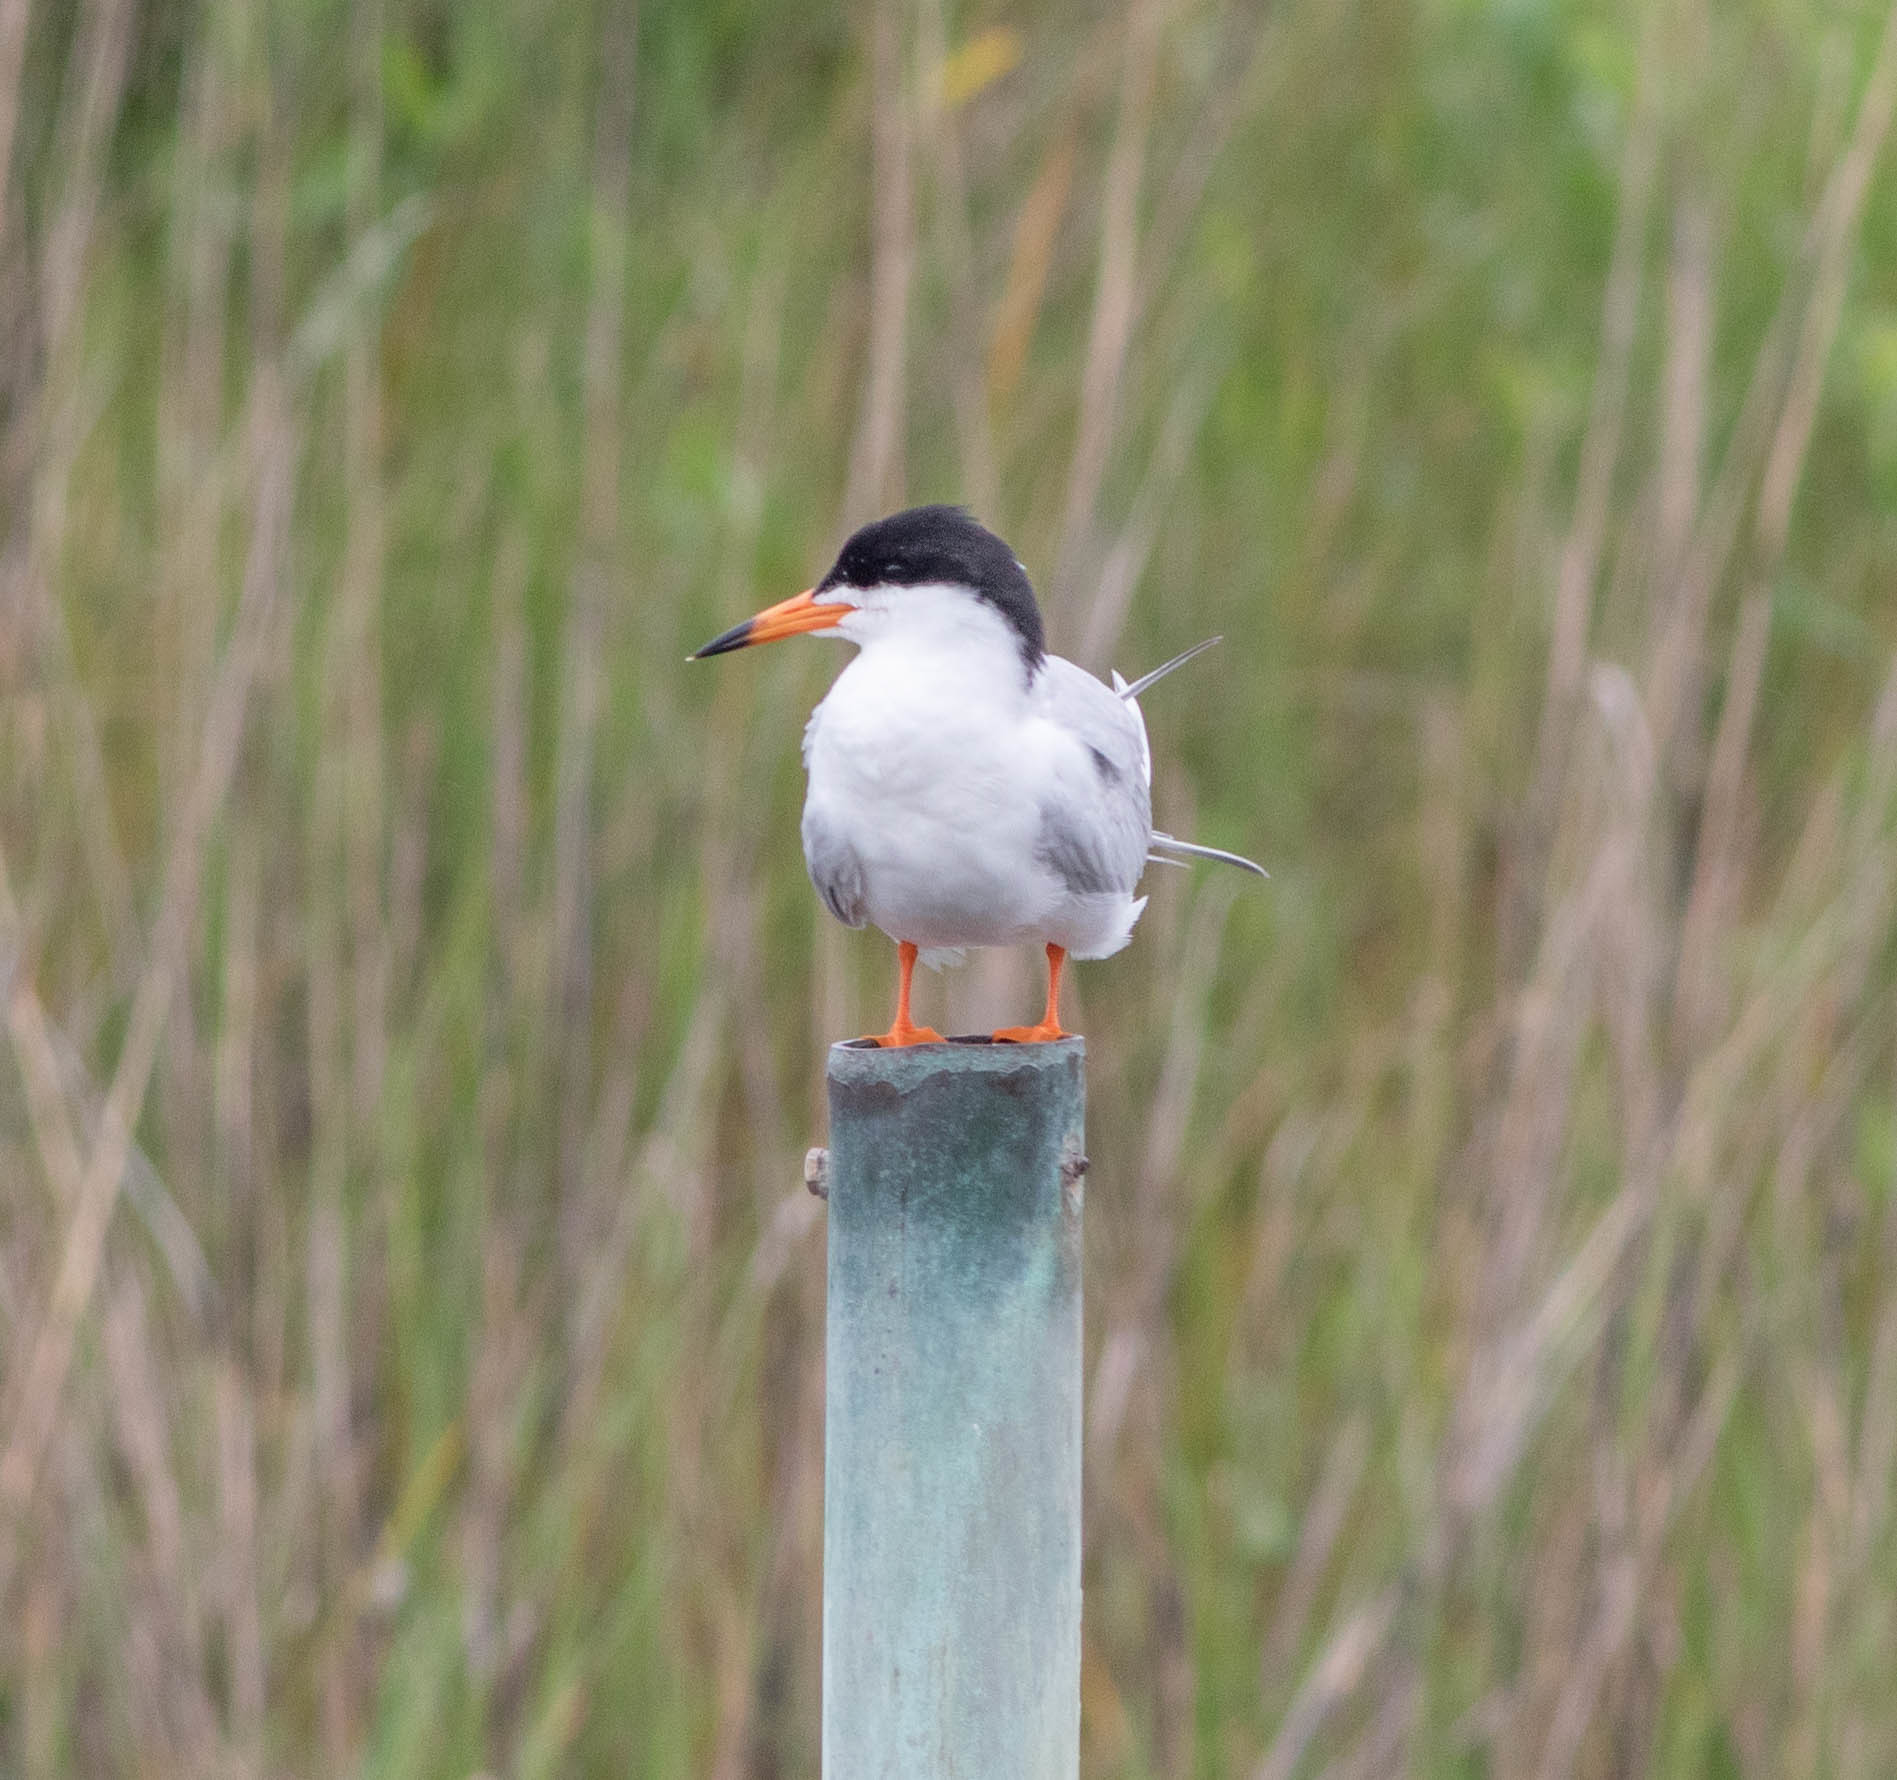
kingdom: Animalia
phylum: Chordata
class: Aves
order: Charadriiformes
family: Laridae
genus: Sterna
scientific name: Sterna forsteri
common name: Forster's tern
